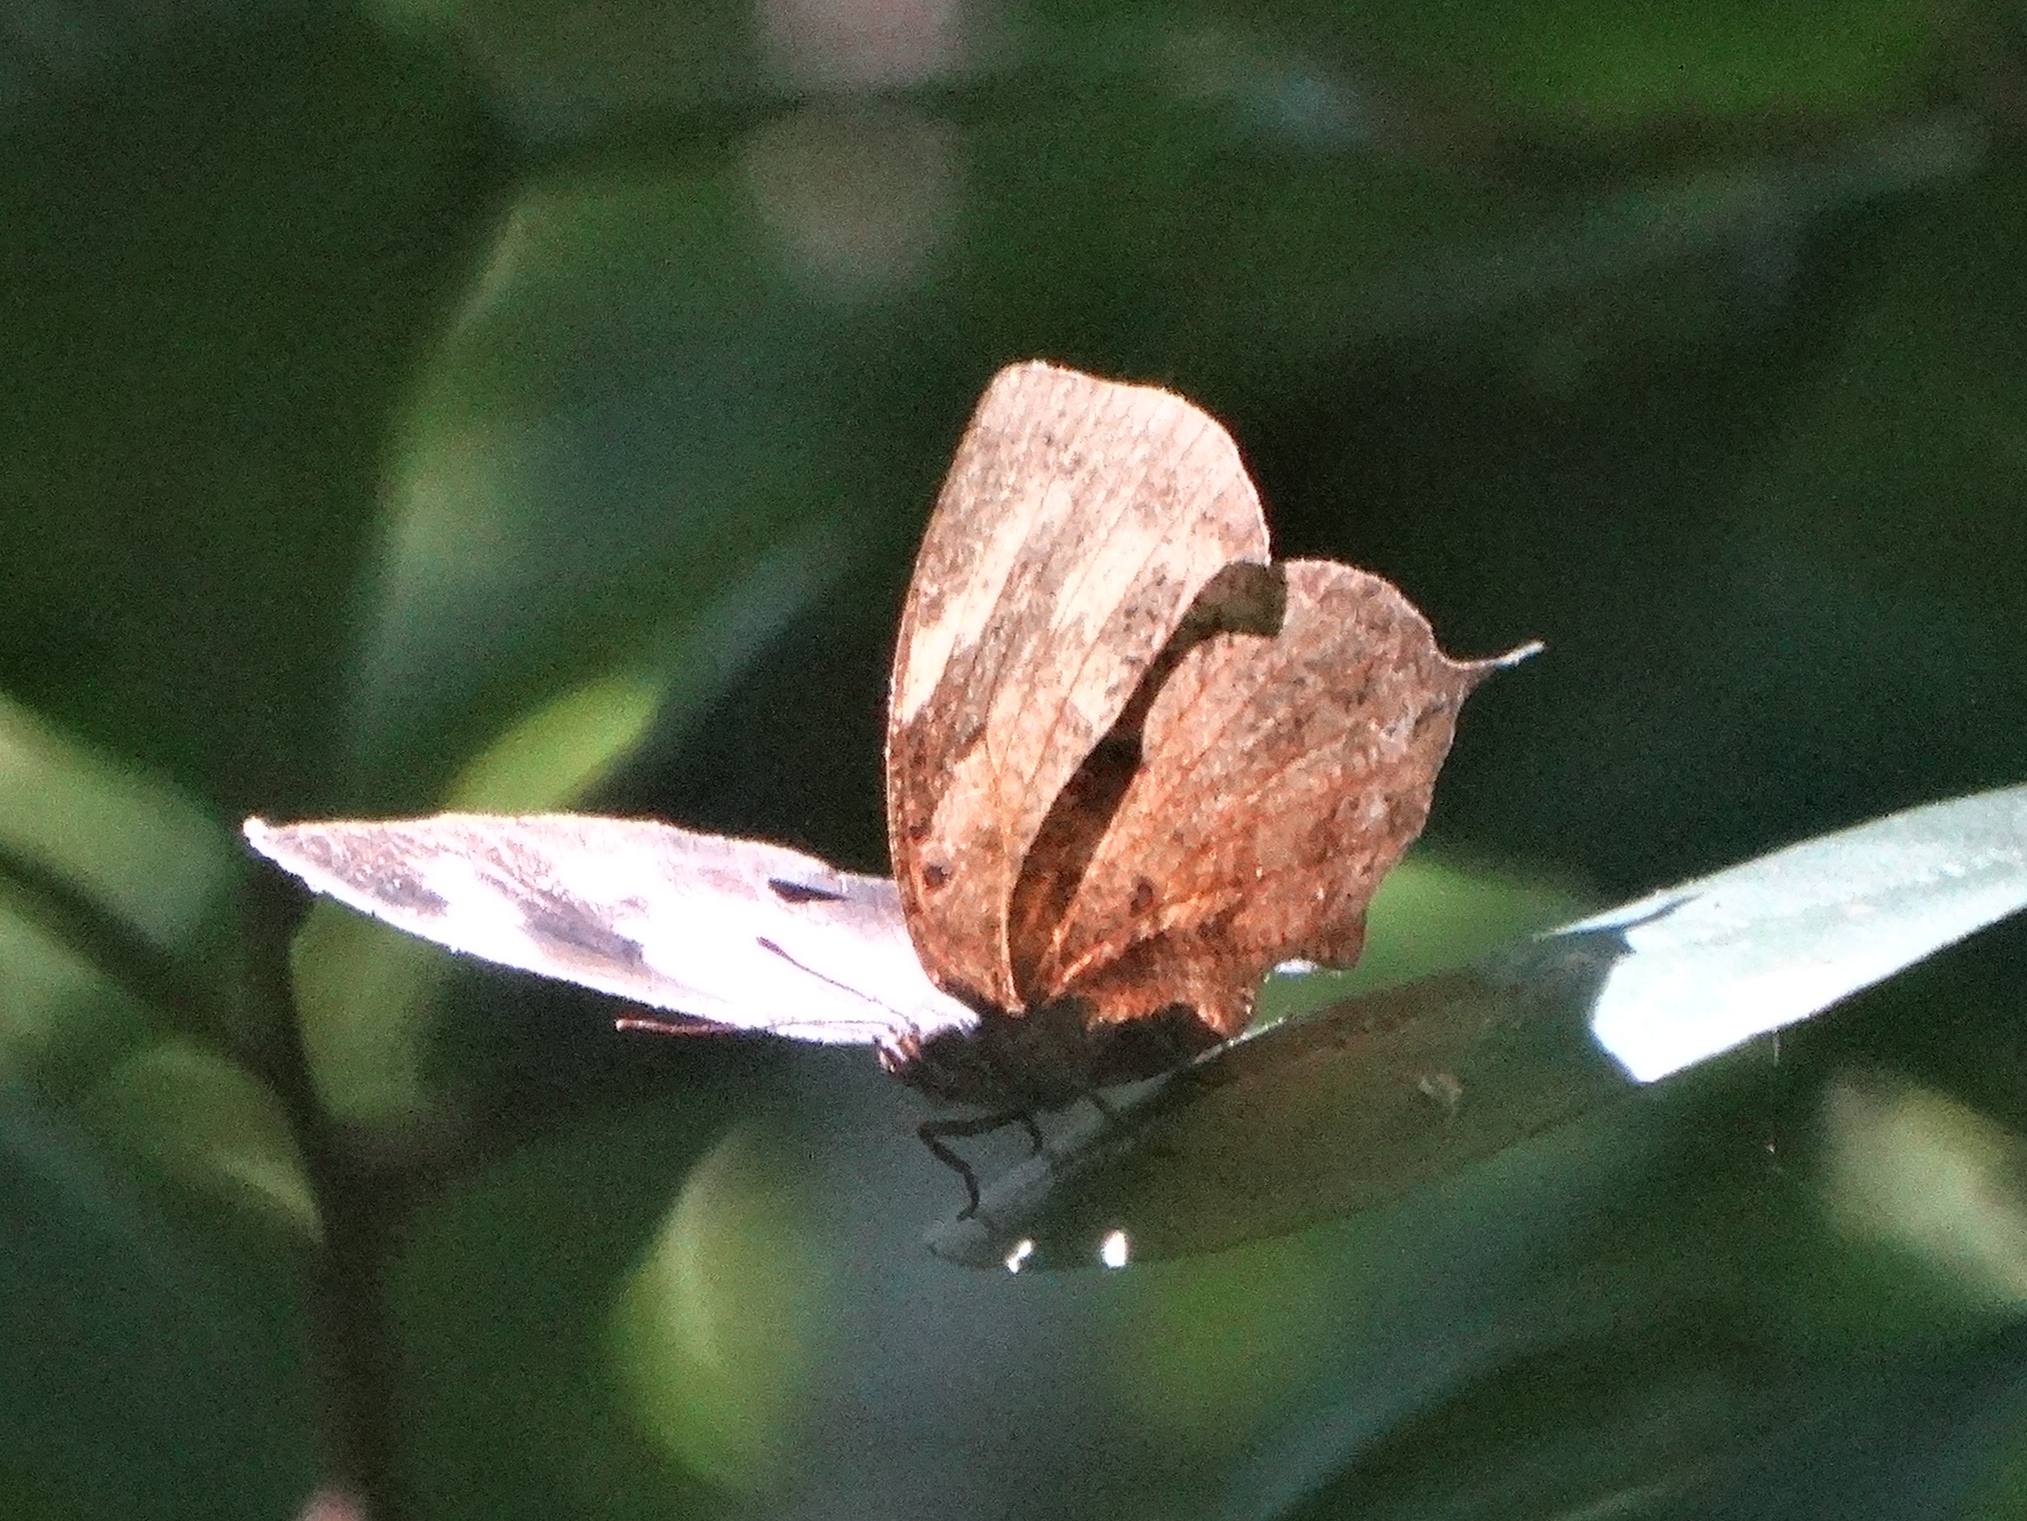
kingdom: Animalia
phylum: Arthropoda
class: Insecta
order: Lepidoptera
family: Nymphalidae
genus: Anaea
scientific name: Anaea
